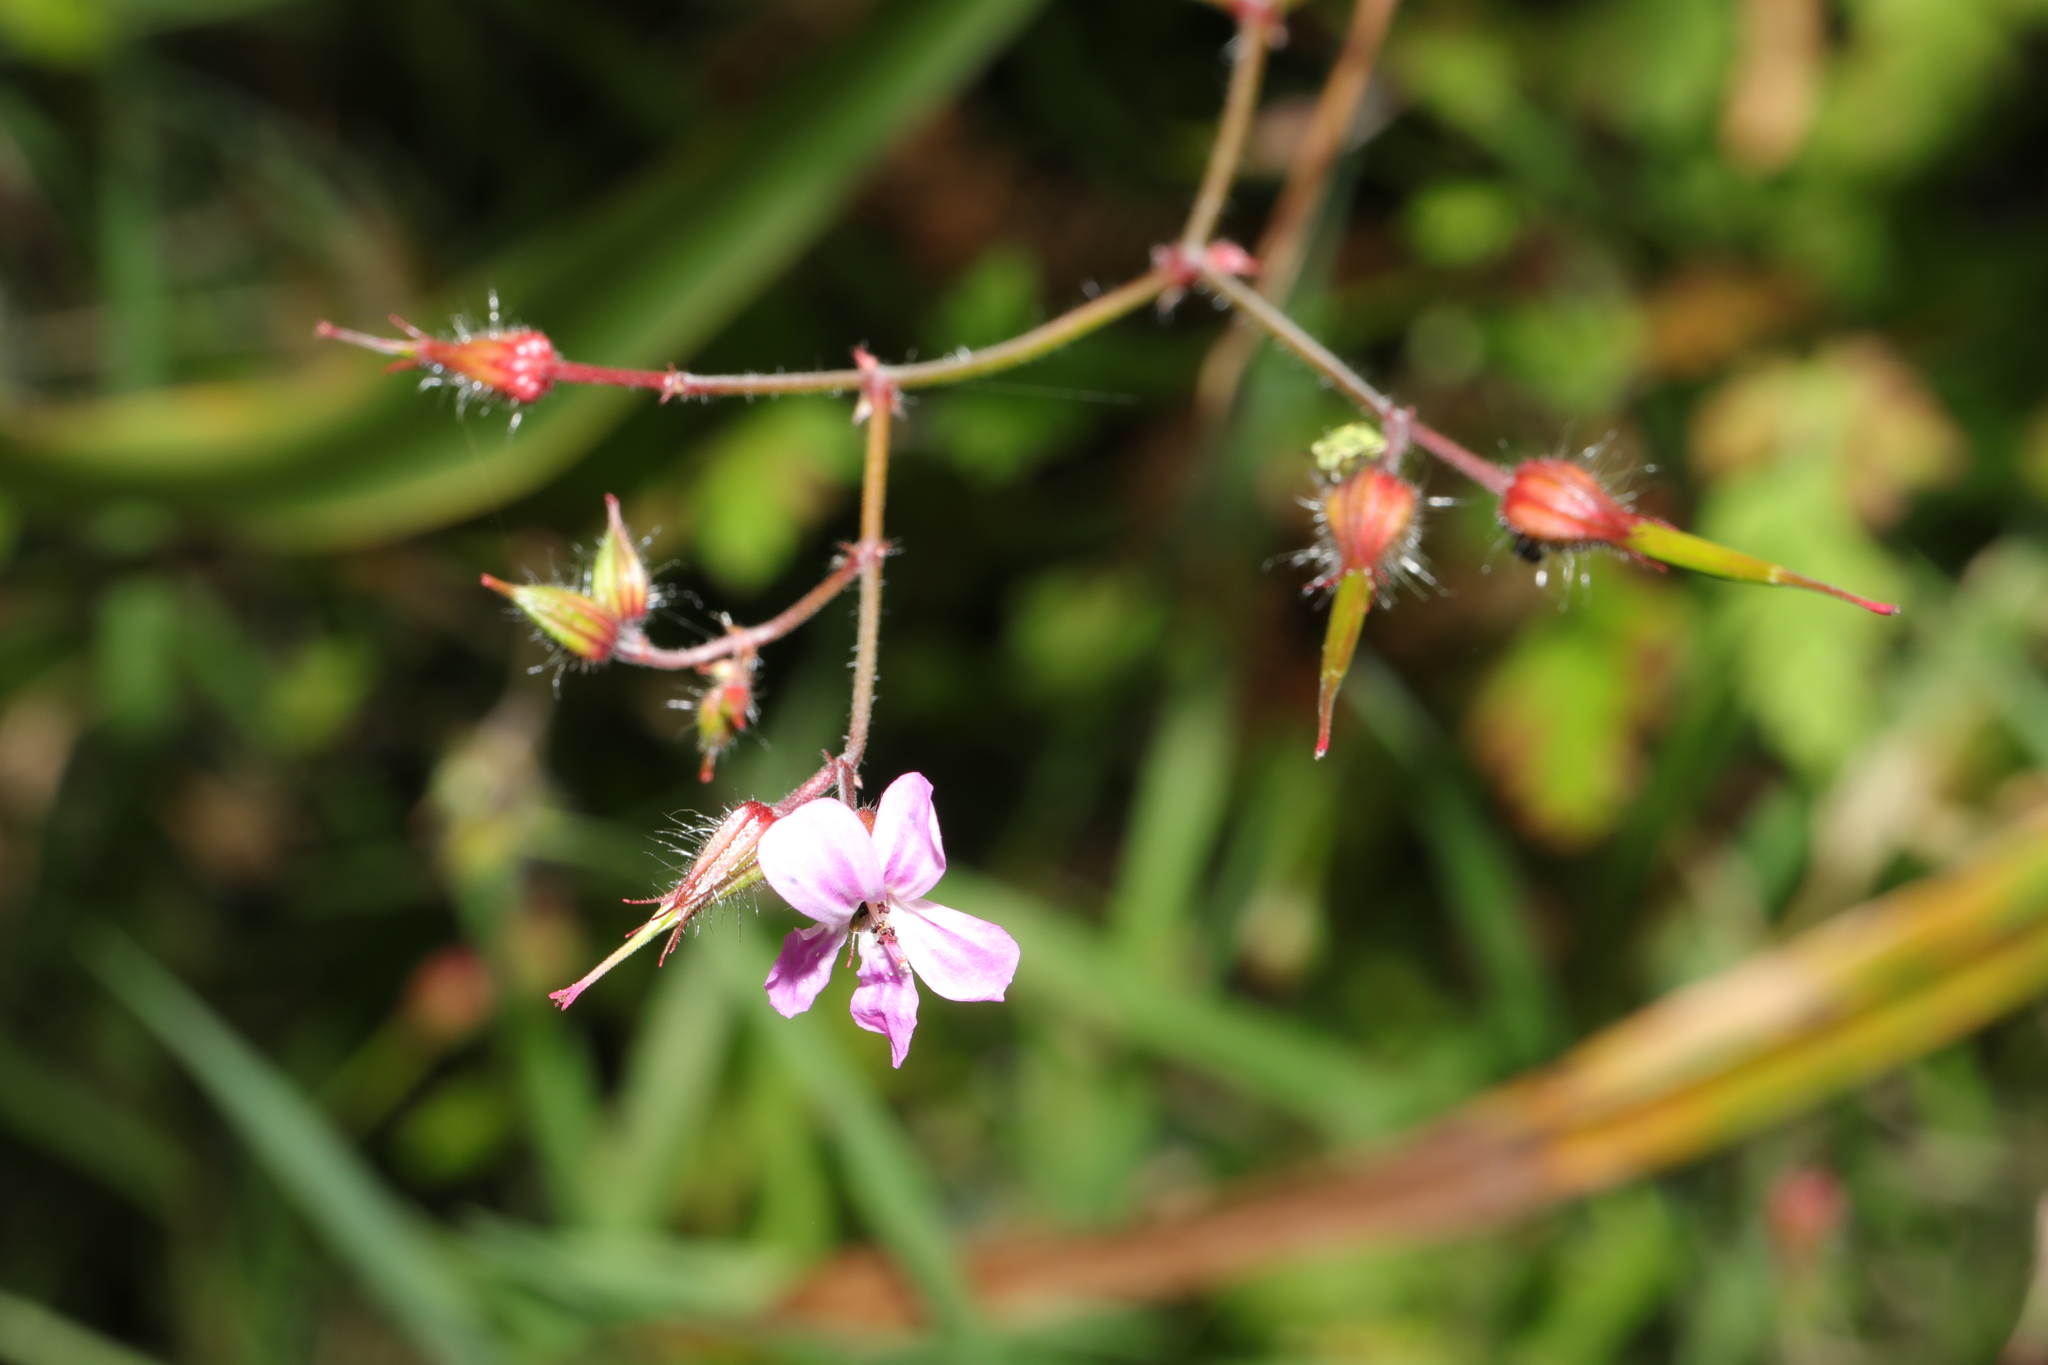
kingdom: Plantae
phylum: Tracheophyta
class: Magnoliopsida
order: Geraniales
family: Geraniaceae
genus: Geranium
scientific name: Geranium robertianum
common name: Herb-robert
